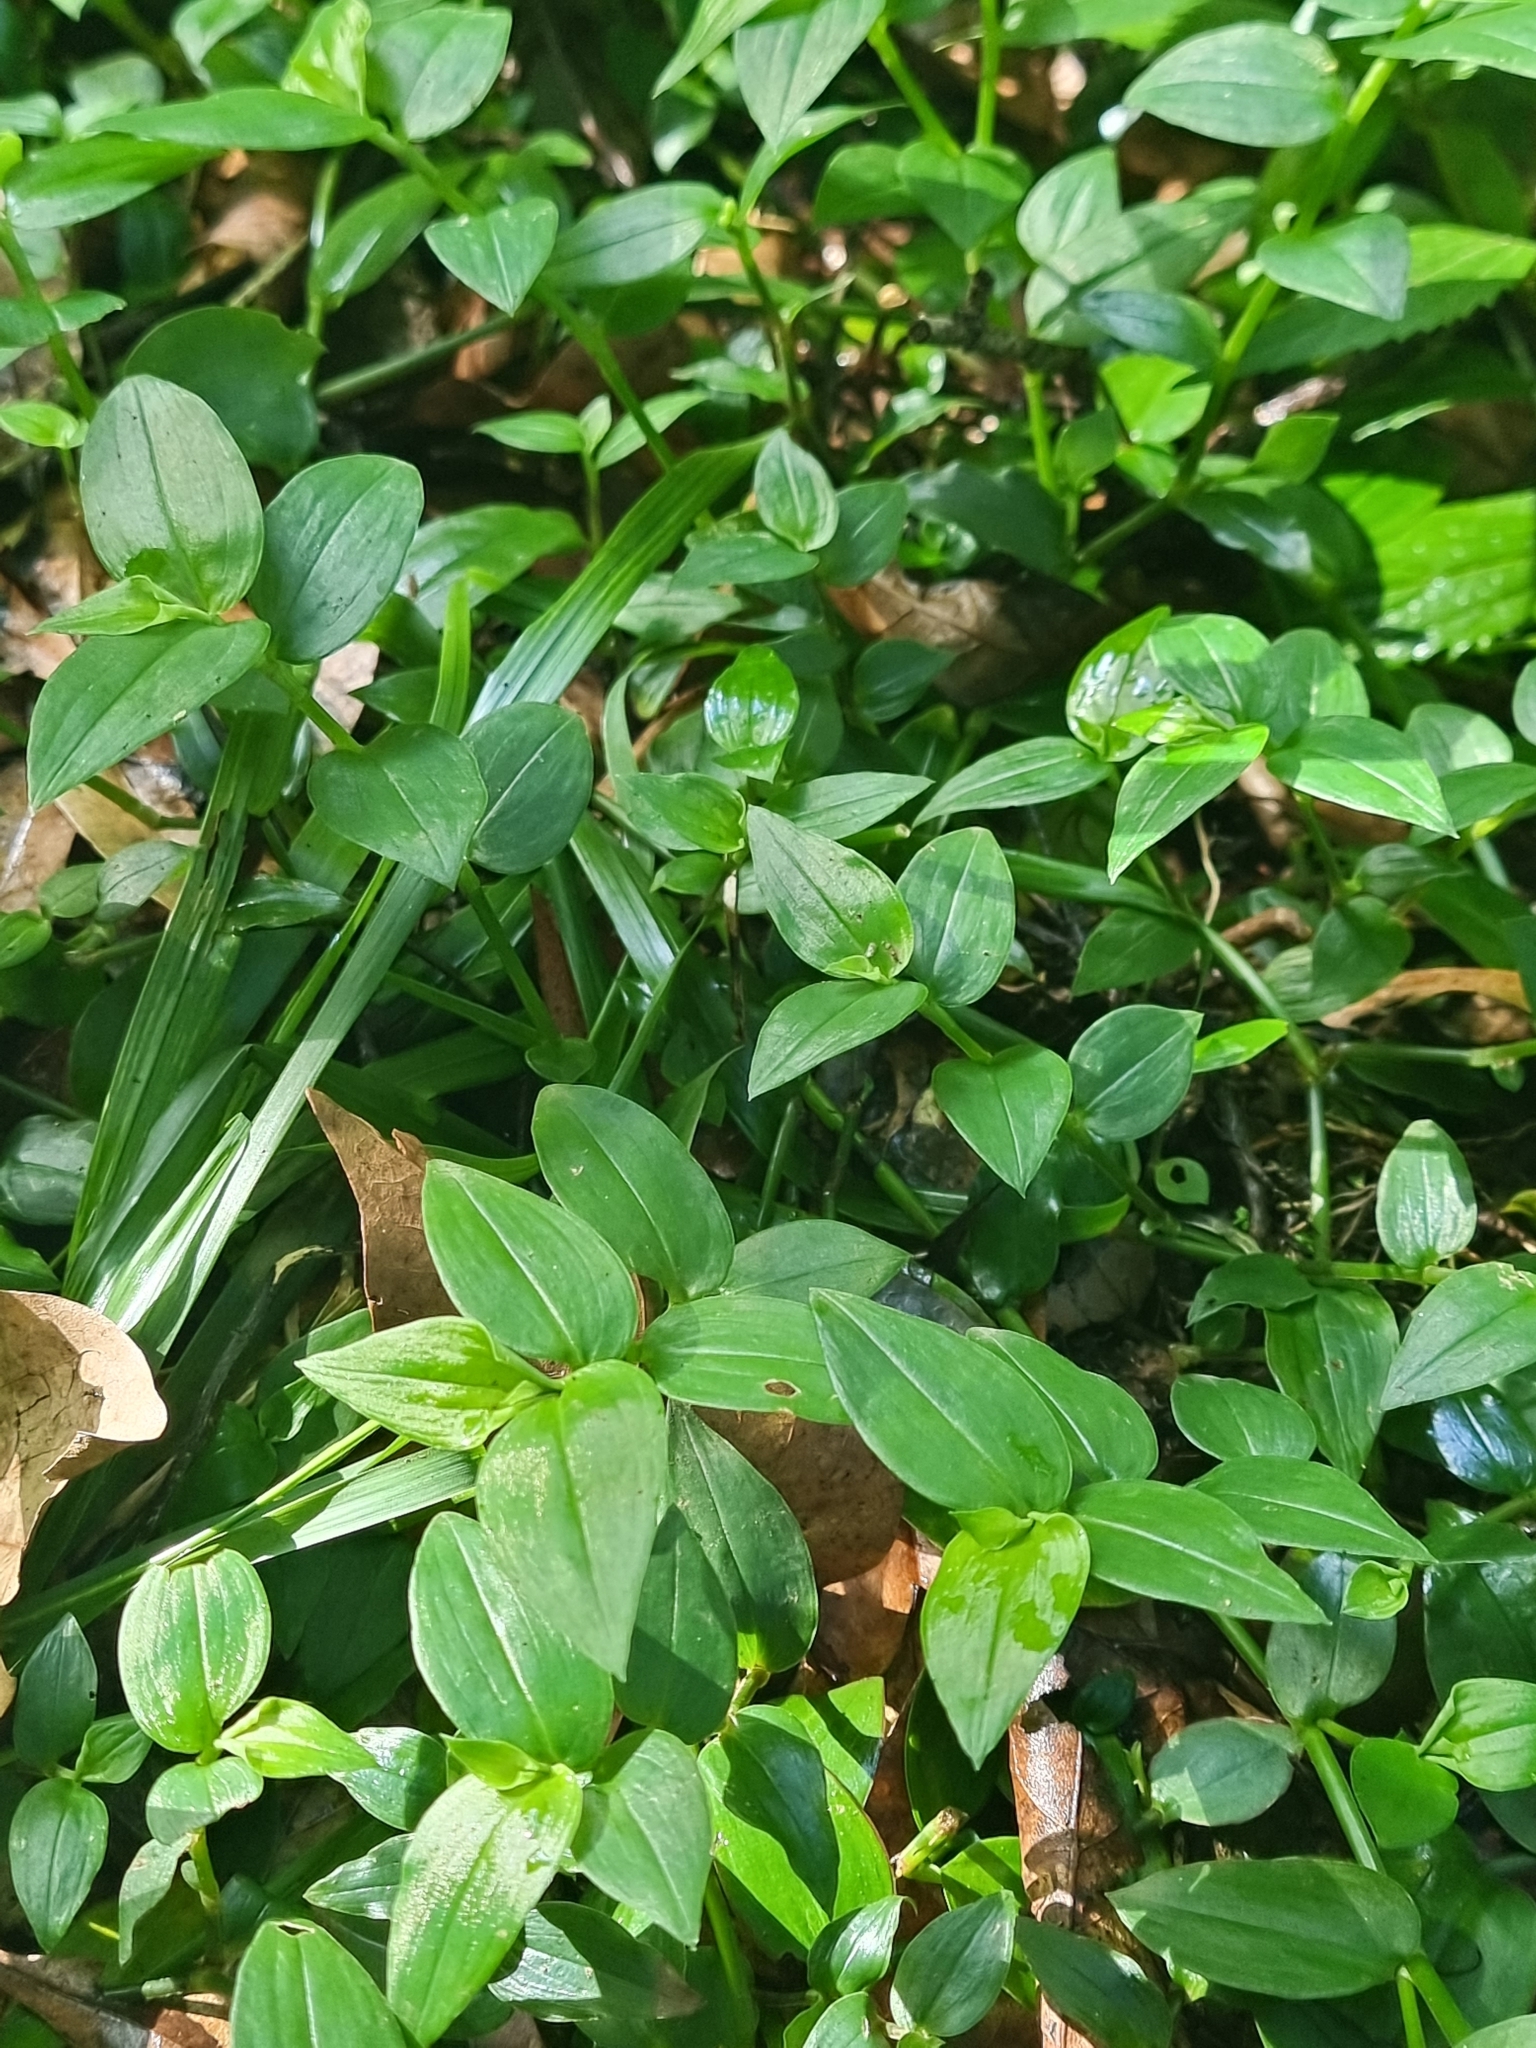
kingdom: Plantae
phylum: Tracheophyta
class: Liliopsida
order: Commelinales
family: Commelinaceae
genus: Tradescantia
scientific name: Tradescantia fluminensis
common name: Wandering-jew
